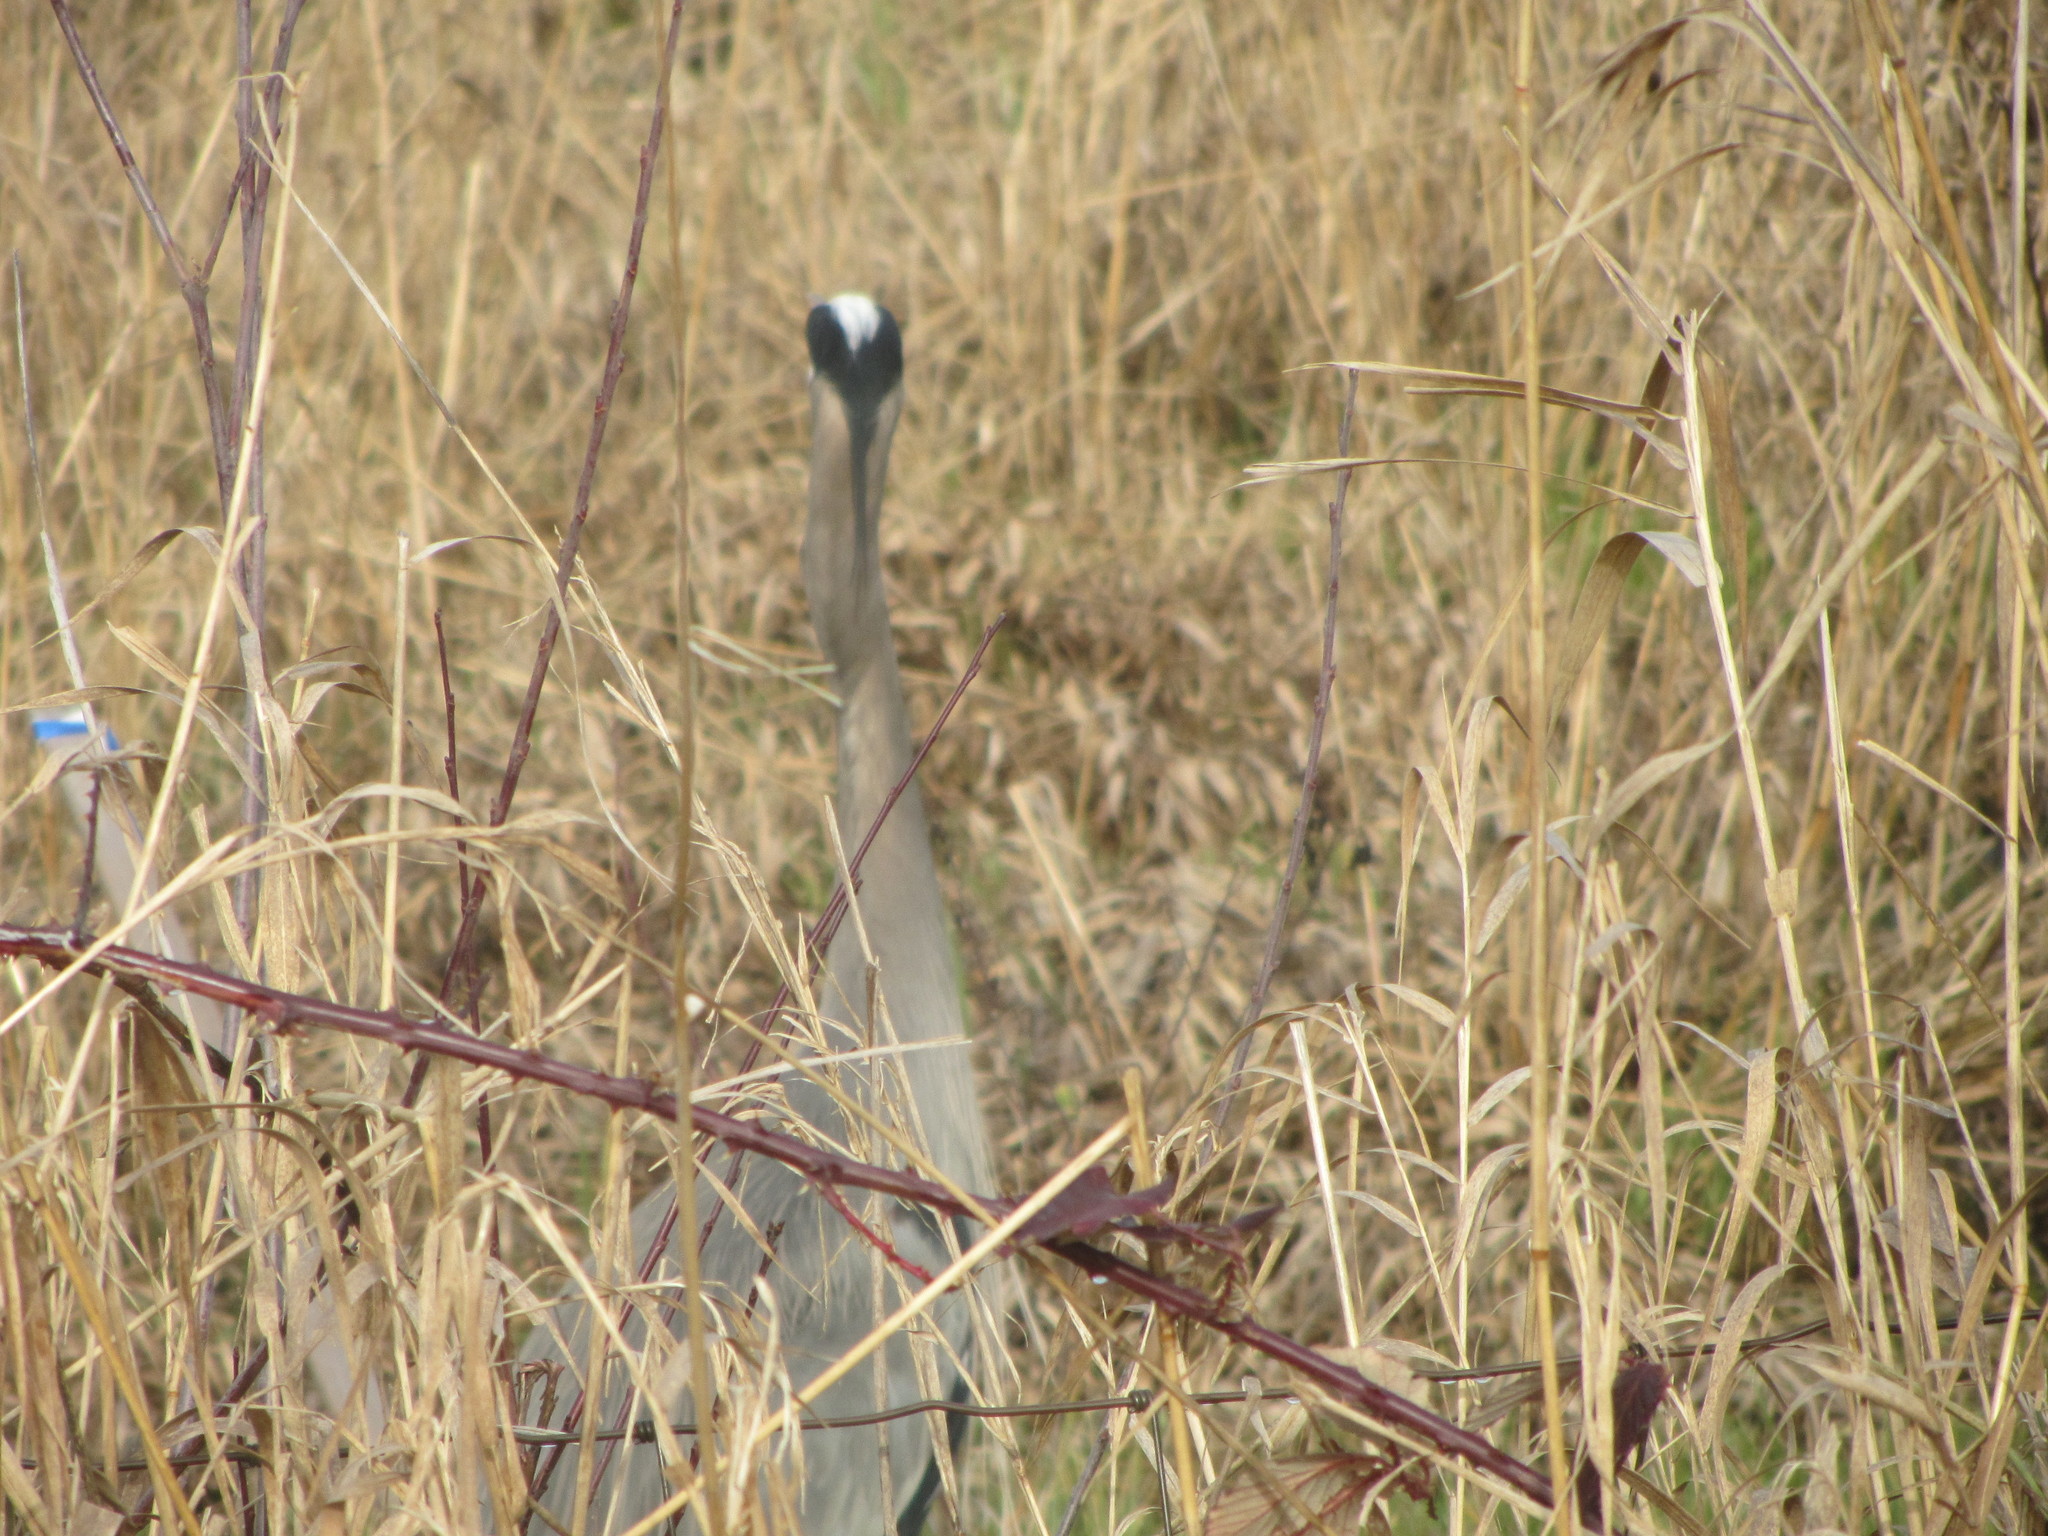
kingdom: Animalia
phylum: Chordata
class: Aves
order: Pelecaniformes
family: Ardeidae
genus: Ardea
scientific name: Ardea herodias
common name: Great blue heron
